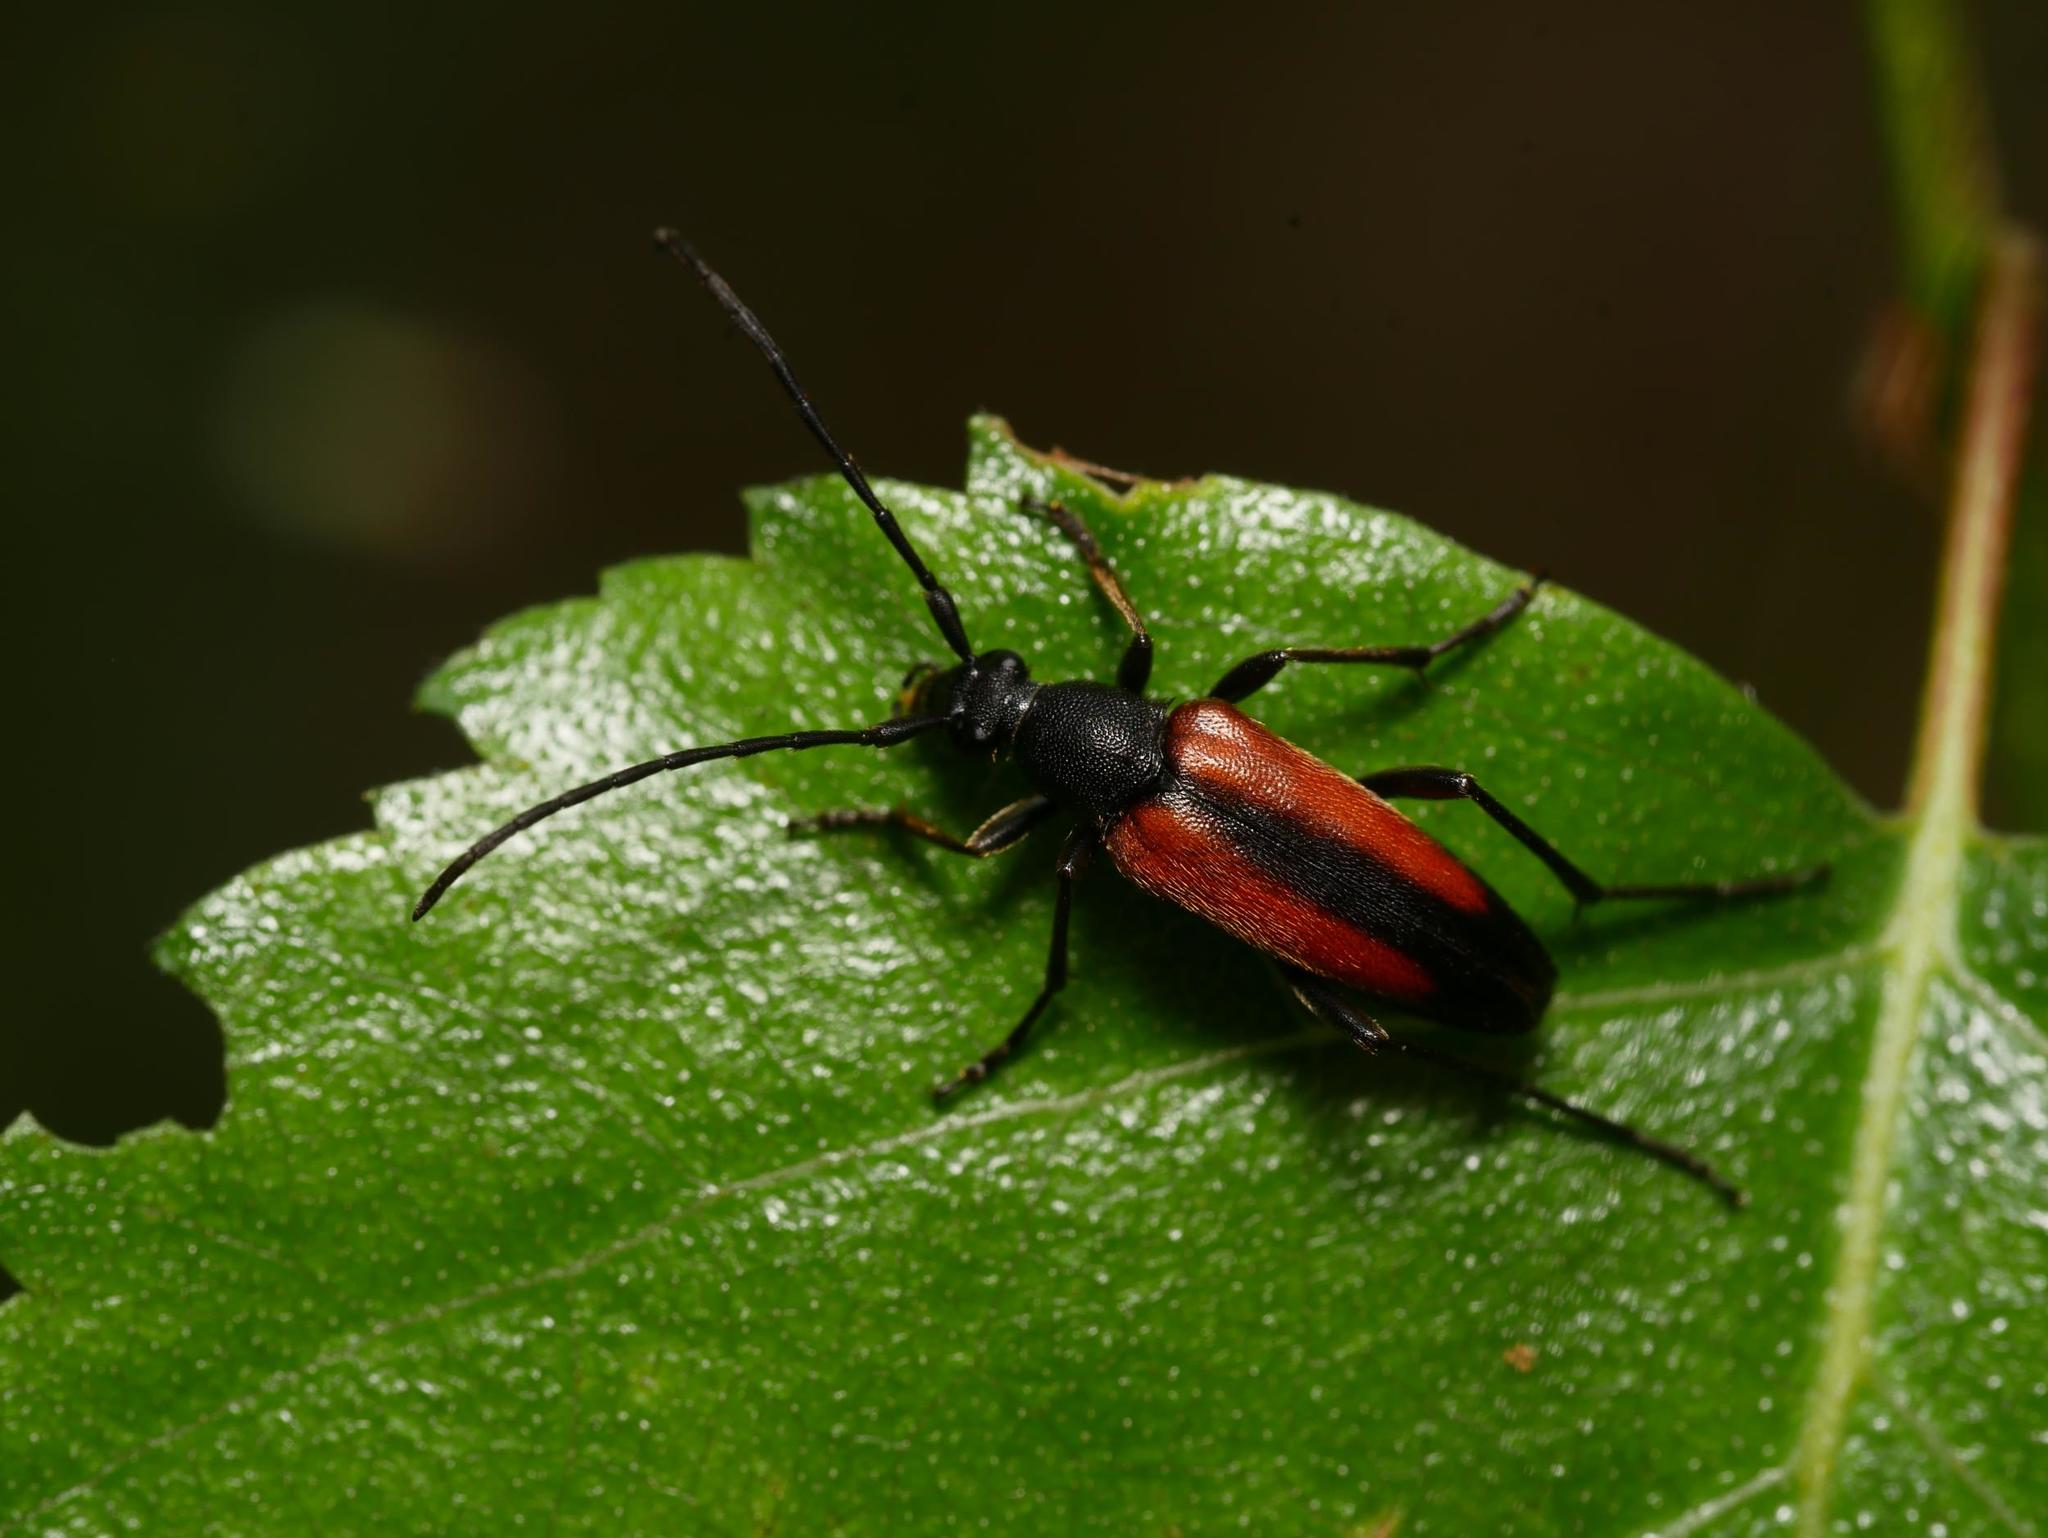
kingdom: Animalia
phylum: Arthropoda
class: Insecta
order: Coleoptera
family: Cerambycidae
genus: Stenurella
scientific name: Stenurella melanura
